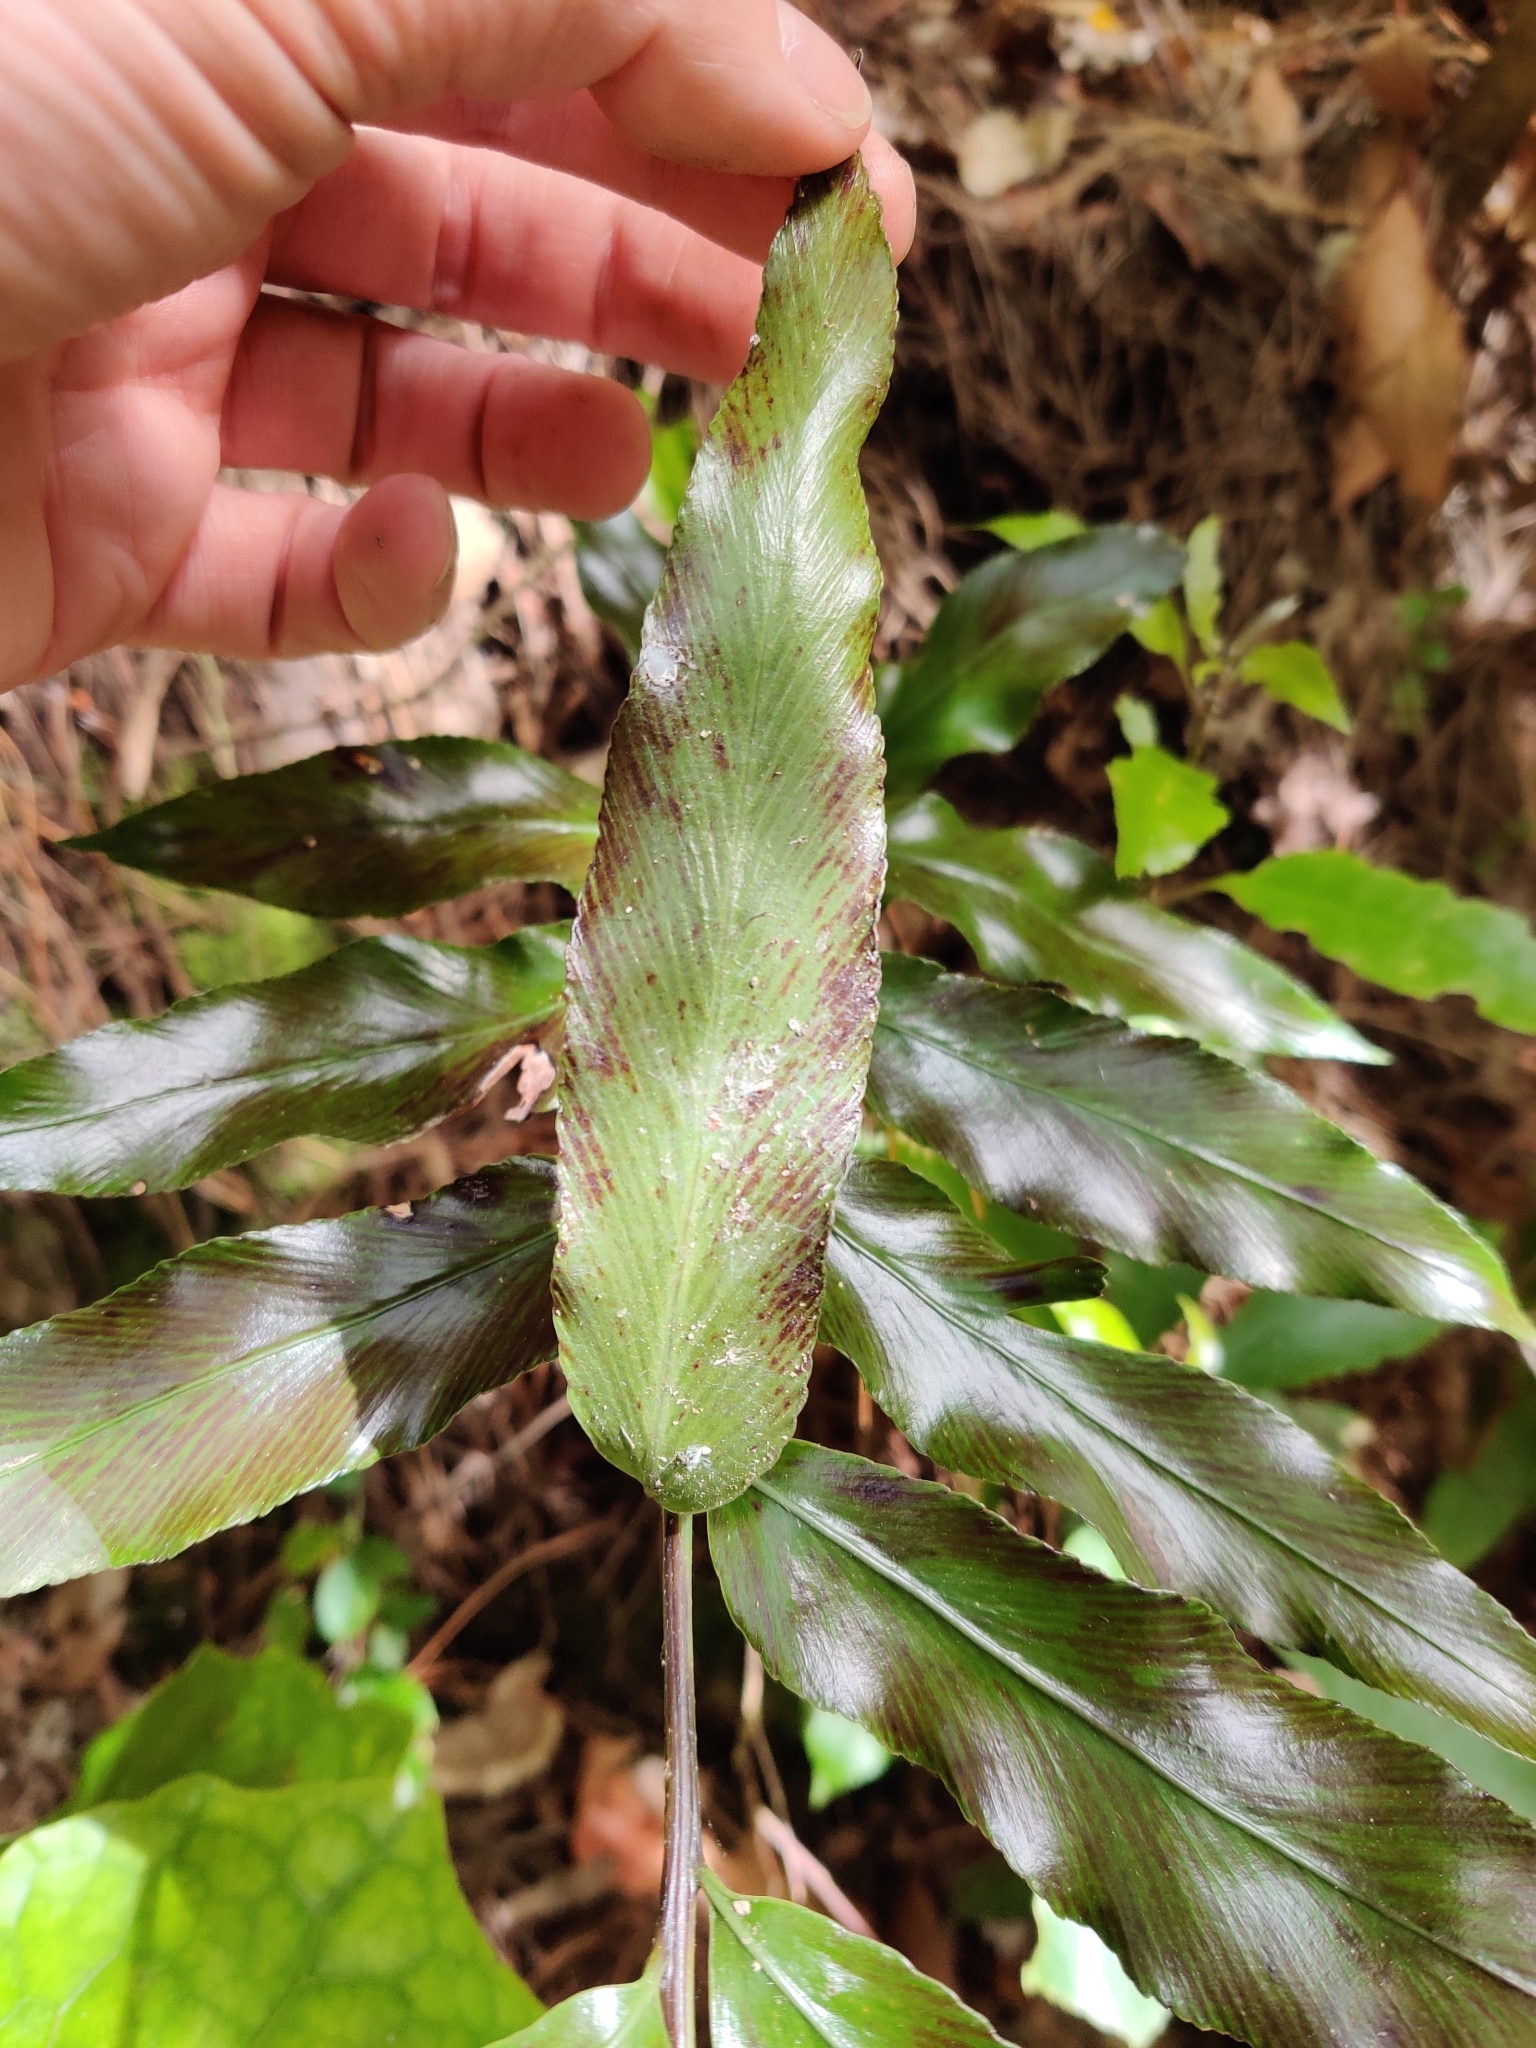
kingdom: Plantae
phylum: Tracheophyta
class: Polypodiopsida
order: Polypodiales
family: Aspleniaceae
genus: Asplenium
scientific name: Asplenium oblongifolium
